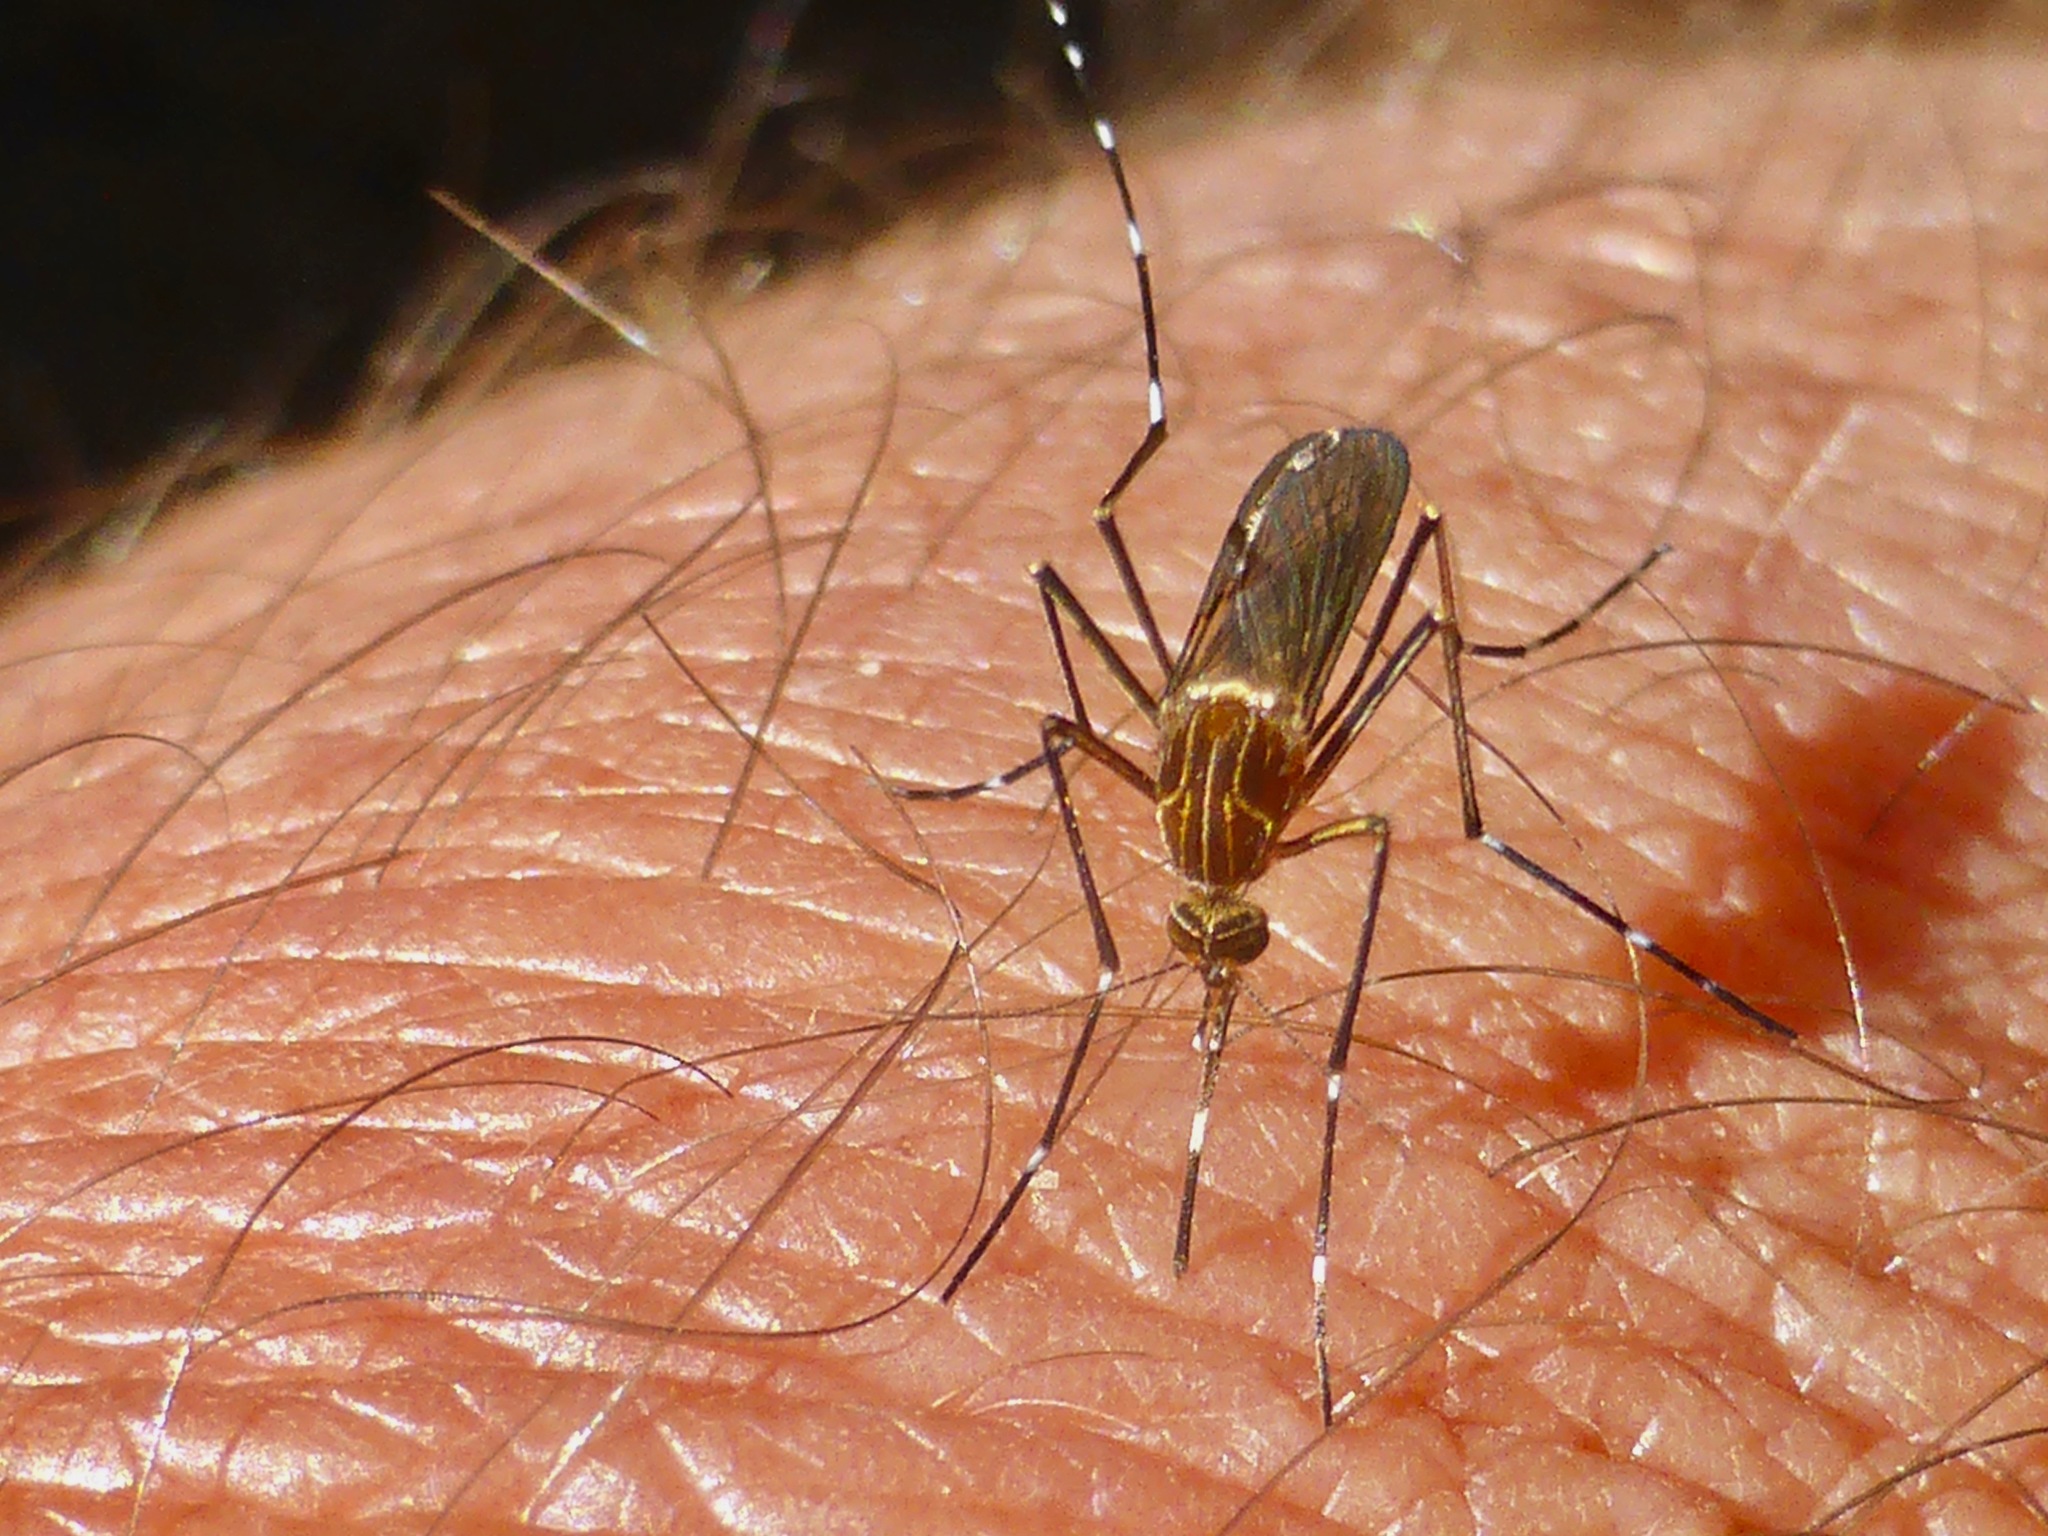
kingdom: Animalia
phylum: Arthropoda
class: Insecta
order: Diptera
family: Culicidae
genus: Aedes
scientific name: Aedes notoscriptus
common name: Australian backyard mosquito
